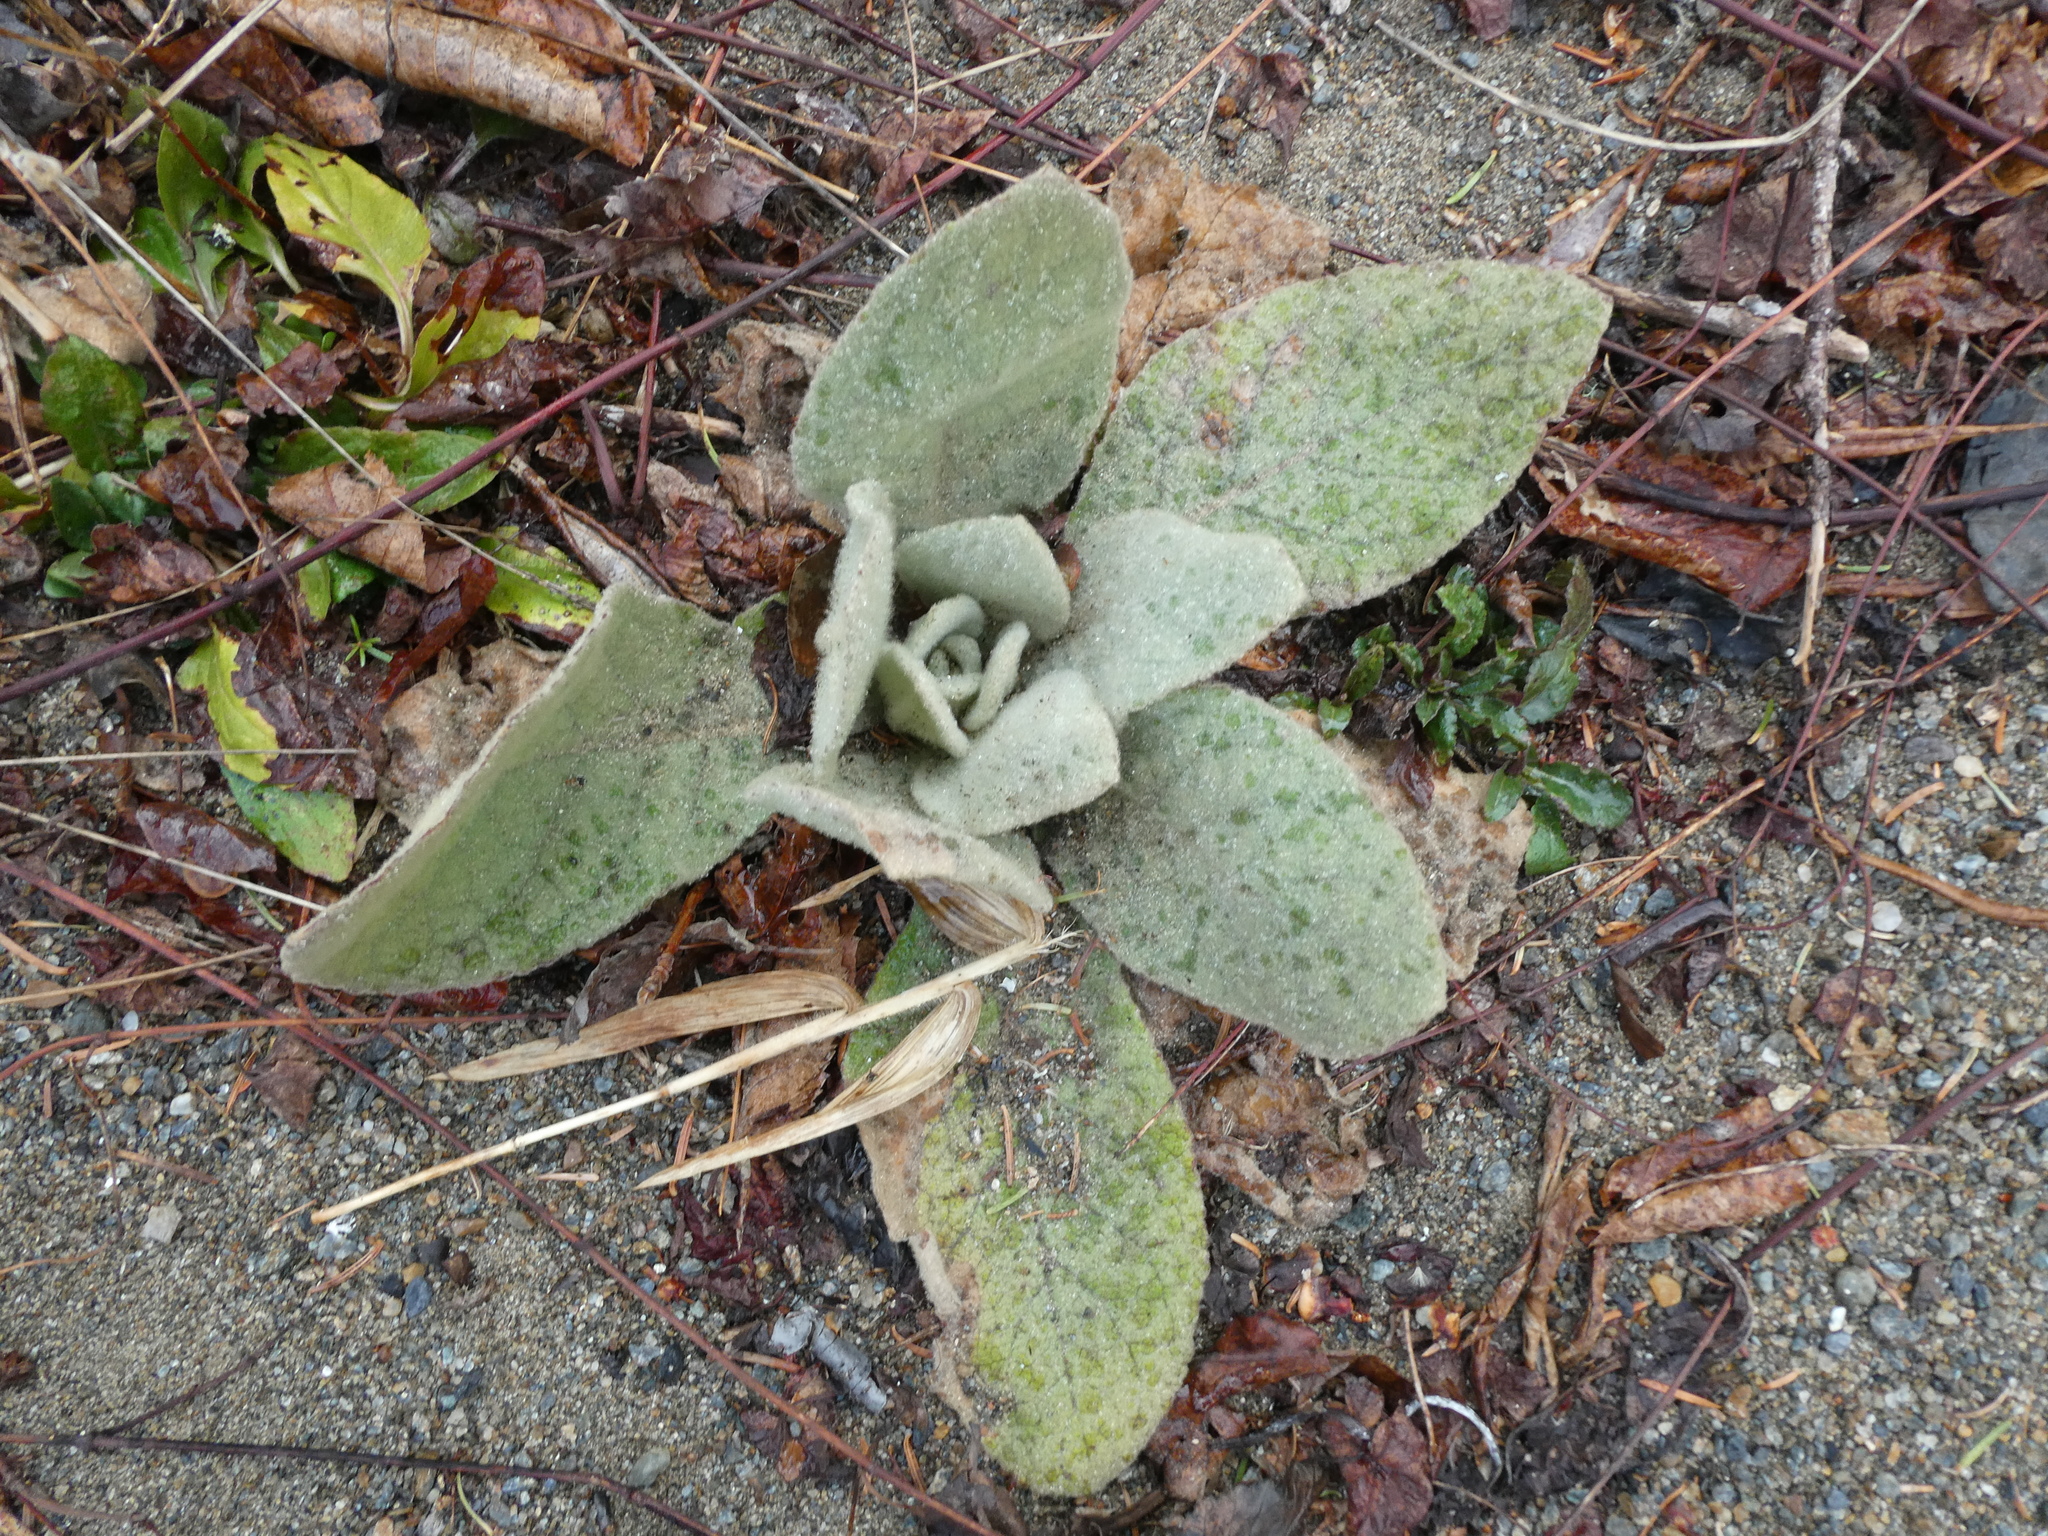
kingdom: Plantae
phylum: Tracheophyta
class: Magnoliopsida
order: Lamiales
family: Scrophulariaceae
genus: Verbascum
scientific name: Verbascum thapsus
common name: Common mullein
